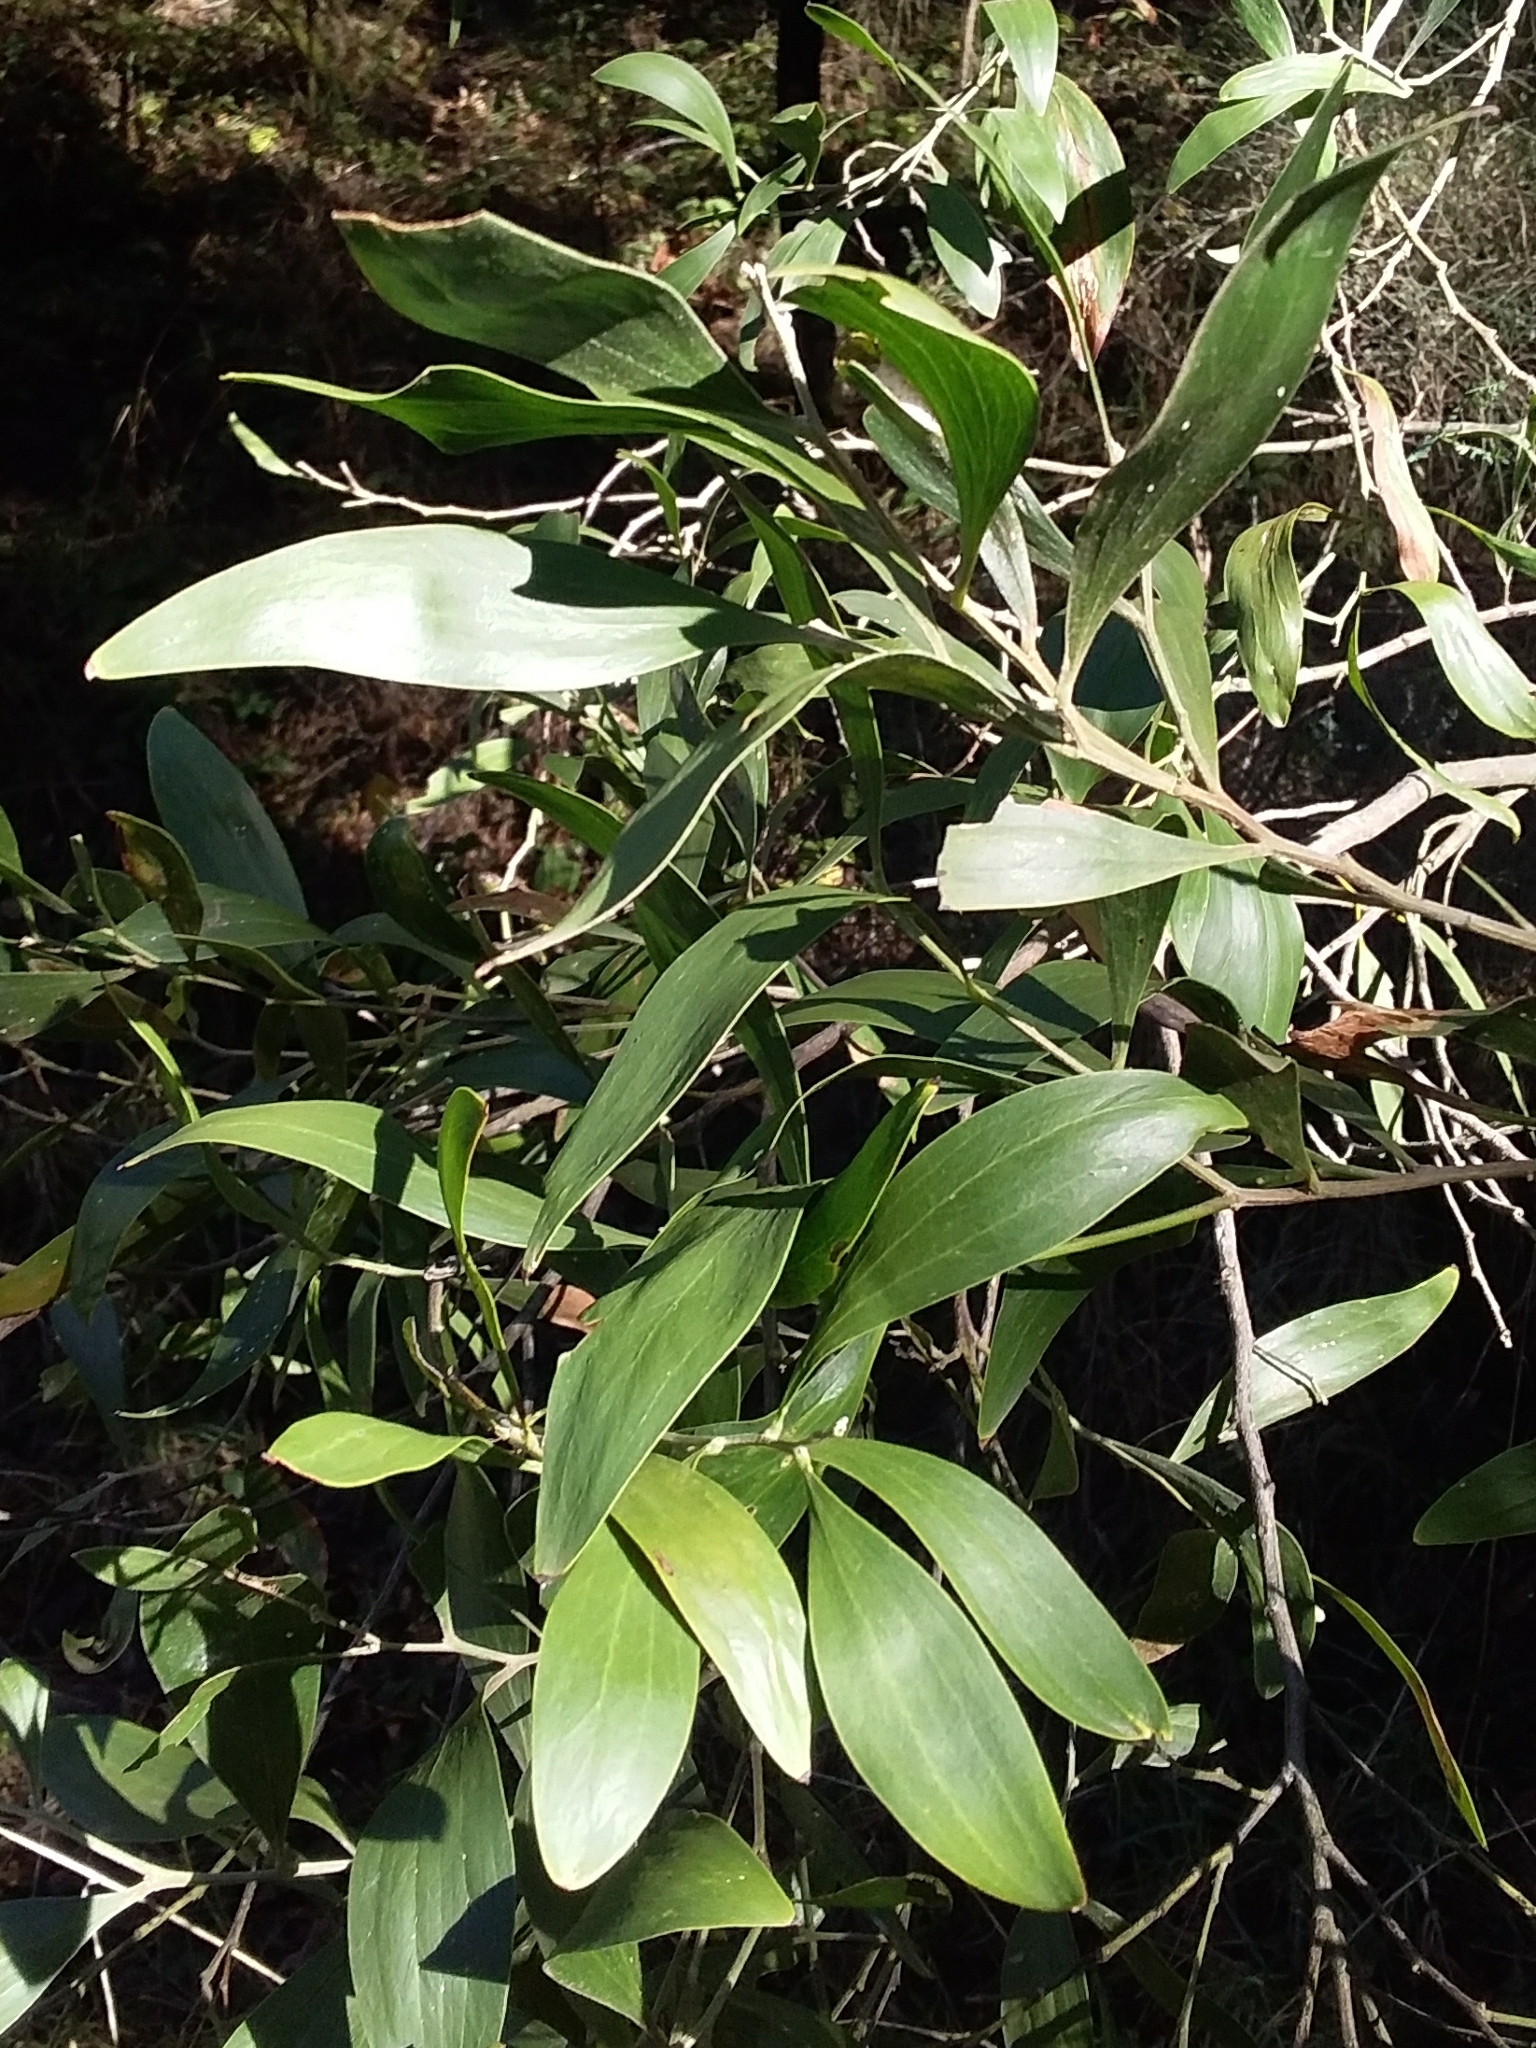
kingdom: Plantae
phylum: Tracheophyta
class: Magnoliopsida
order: Fabales
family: Fabaceae
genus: Acacia
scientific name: Acacia melanoxylon
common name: Blackwood
